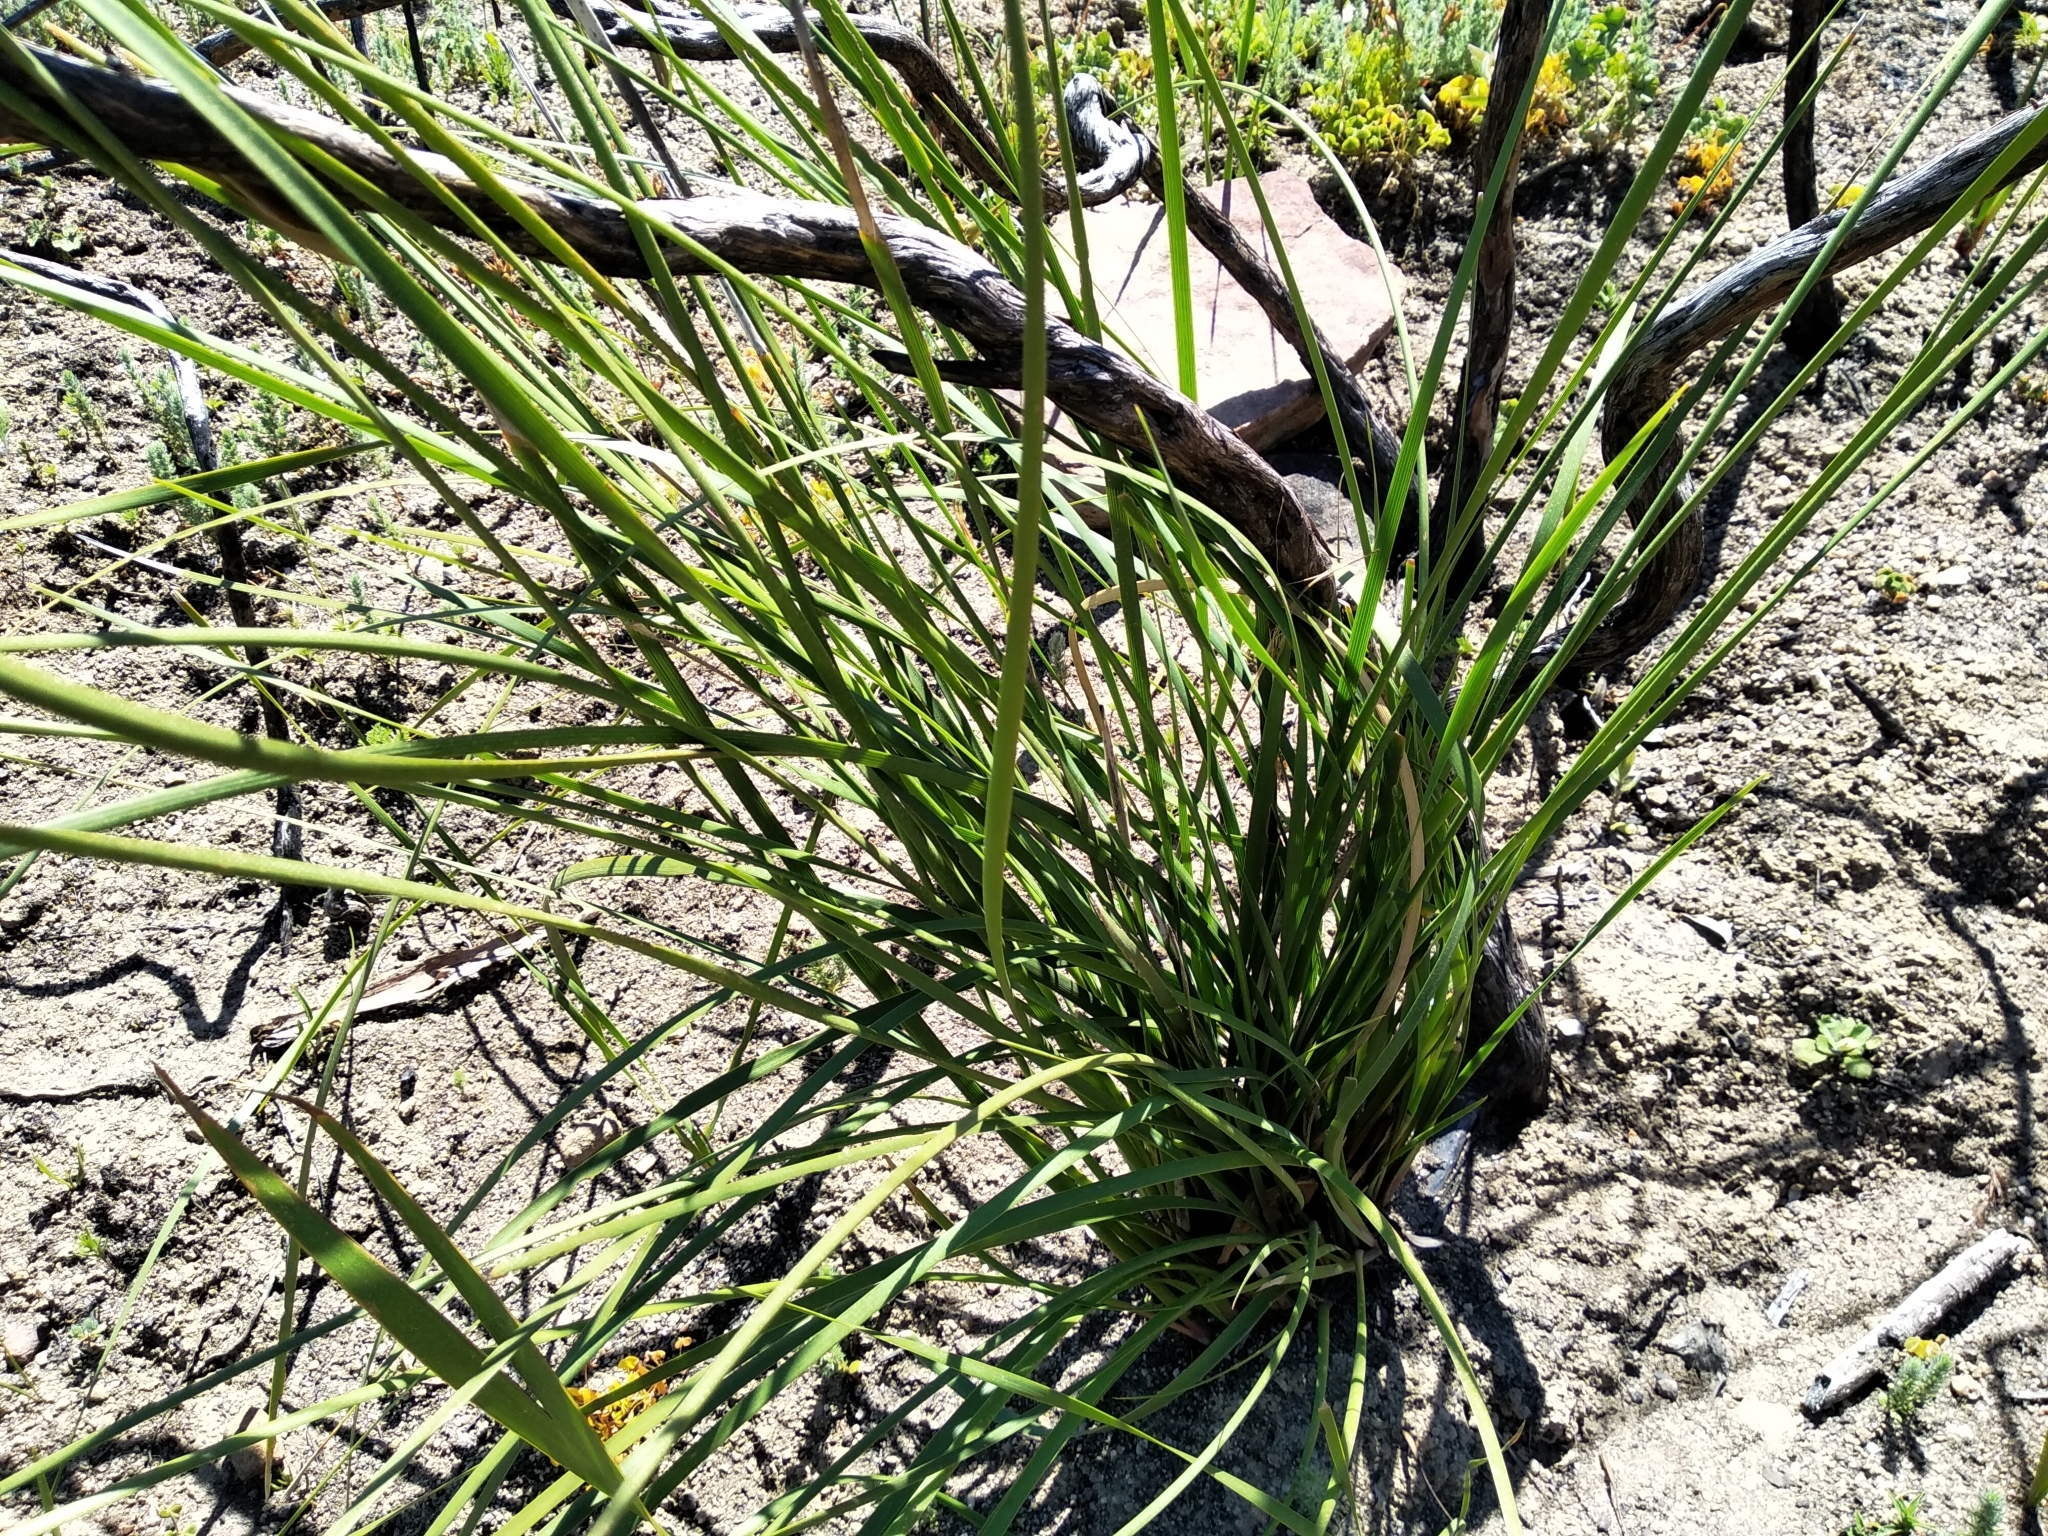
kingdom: Plantae
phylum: Tracheophyta
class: Liliopsida
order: Asparagales
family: Iridaceae
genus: Bobartia
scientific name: Bobartia gladiata
